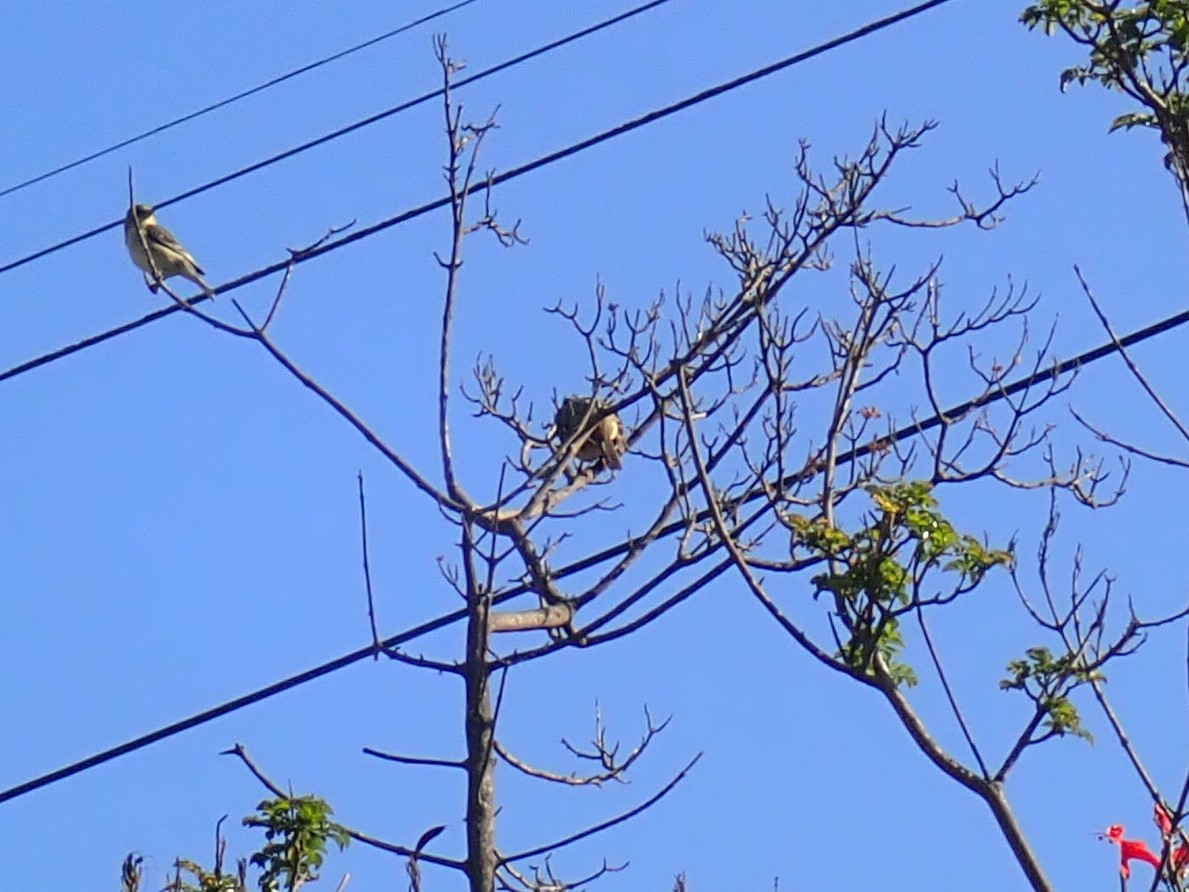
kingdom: Animalia
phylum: Chordata
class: Aves
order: Passeriformes
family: Fringillidae
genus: Spinus
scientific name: Spinus psaltria
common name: Lesser goldfinch
